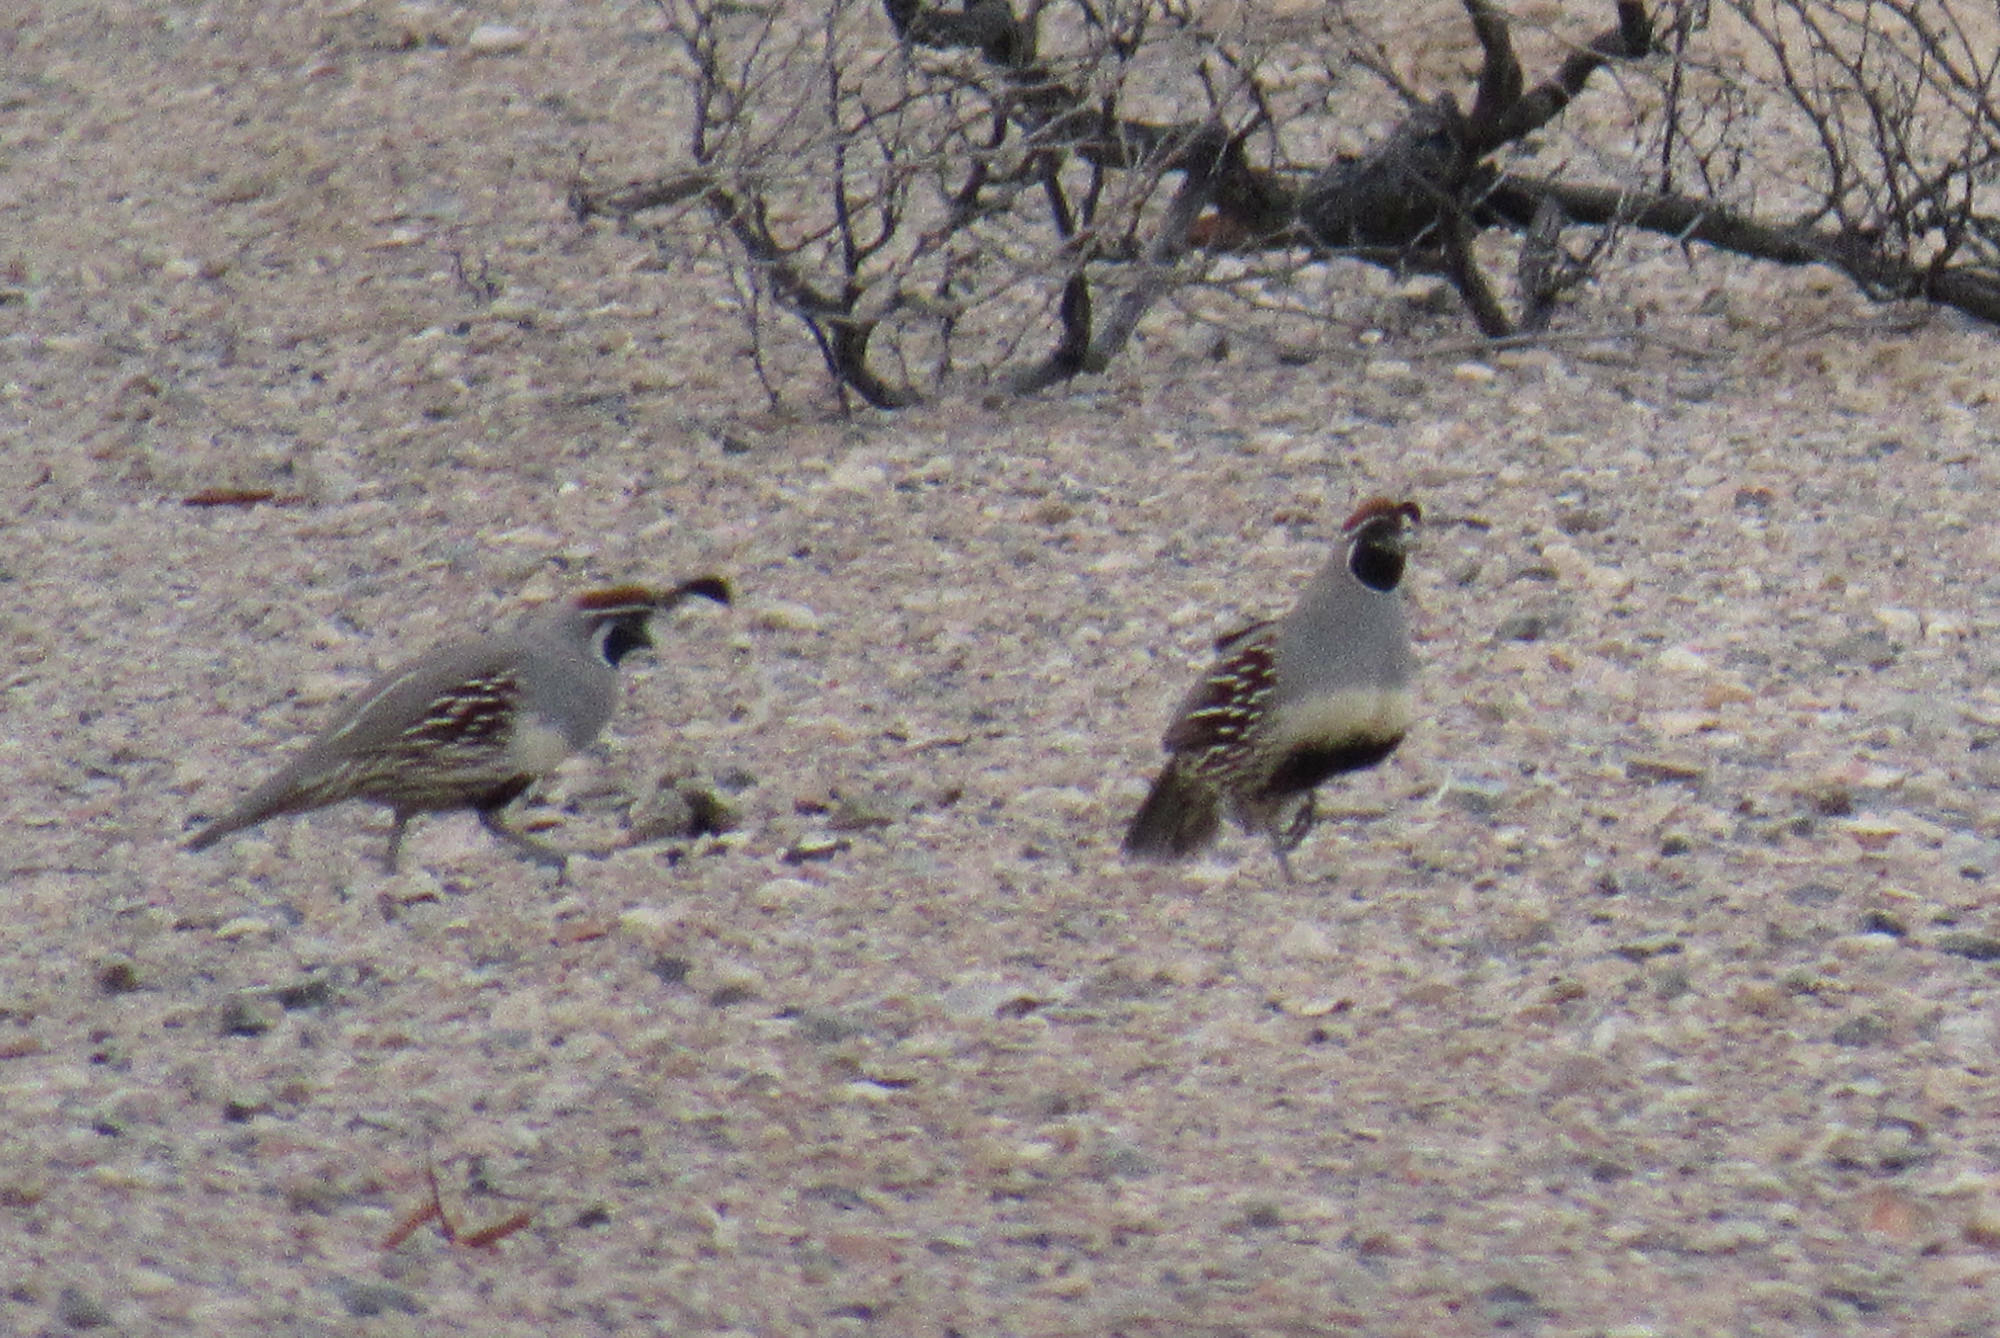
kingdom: Animalia
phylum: Chordata
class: Aves
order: Galliformes
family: Odontophoridae
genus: Callipepla
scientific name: Callipepla gambelii
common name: Gambel's quail
